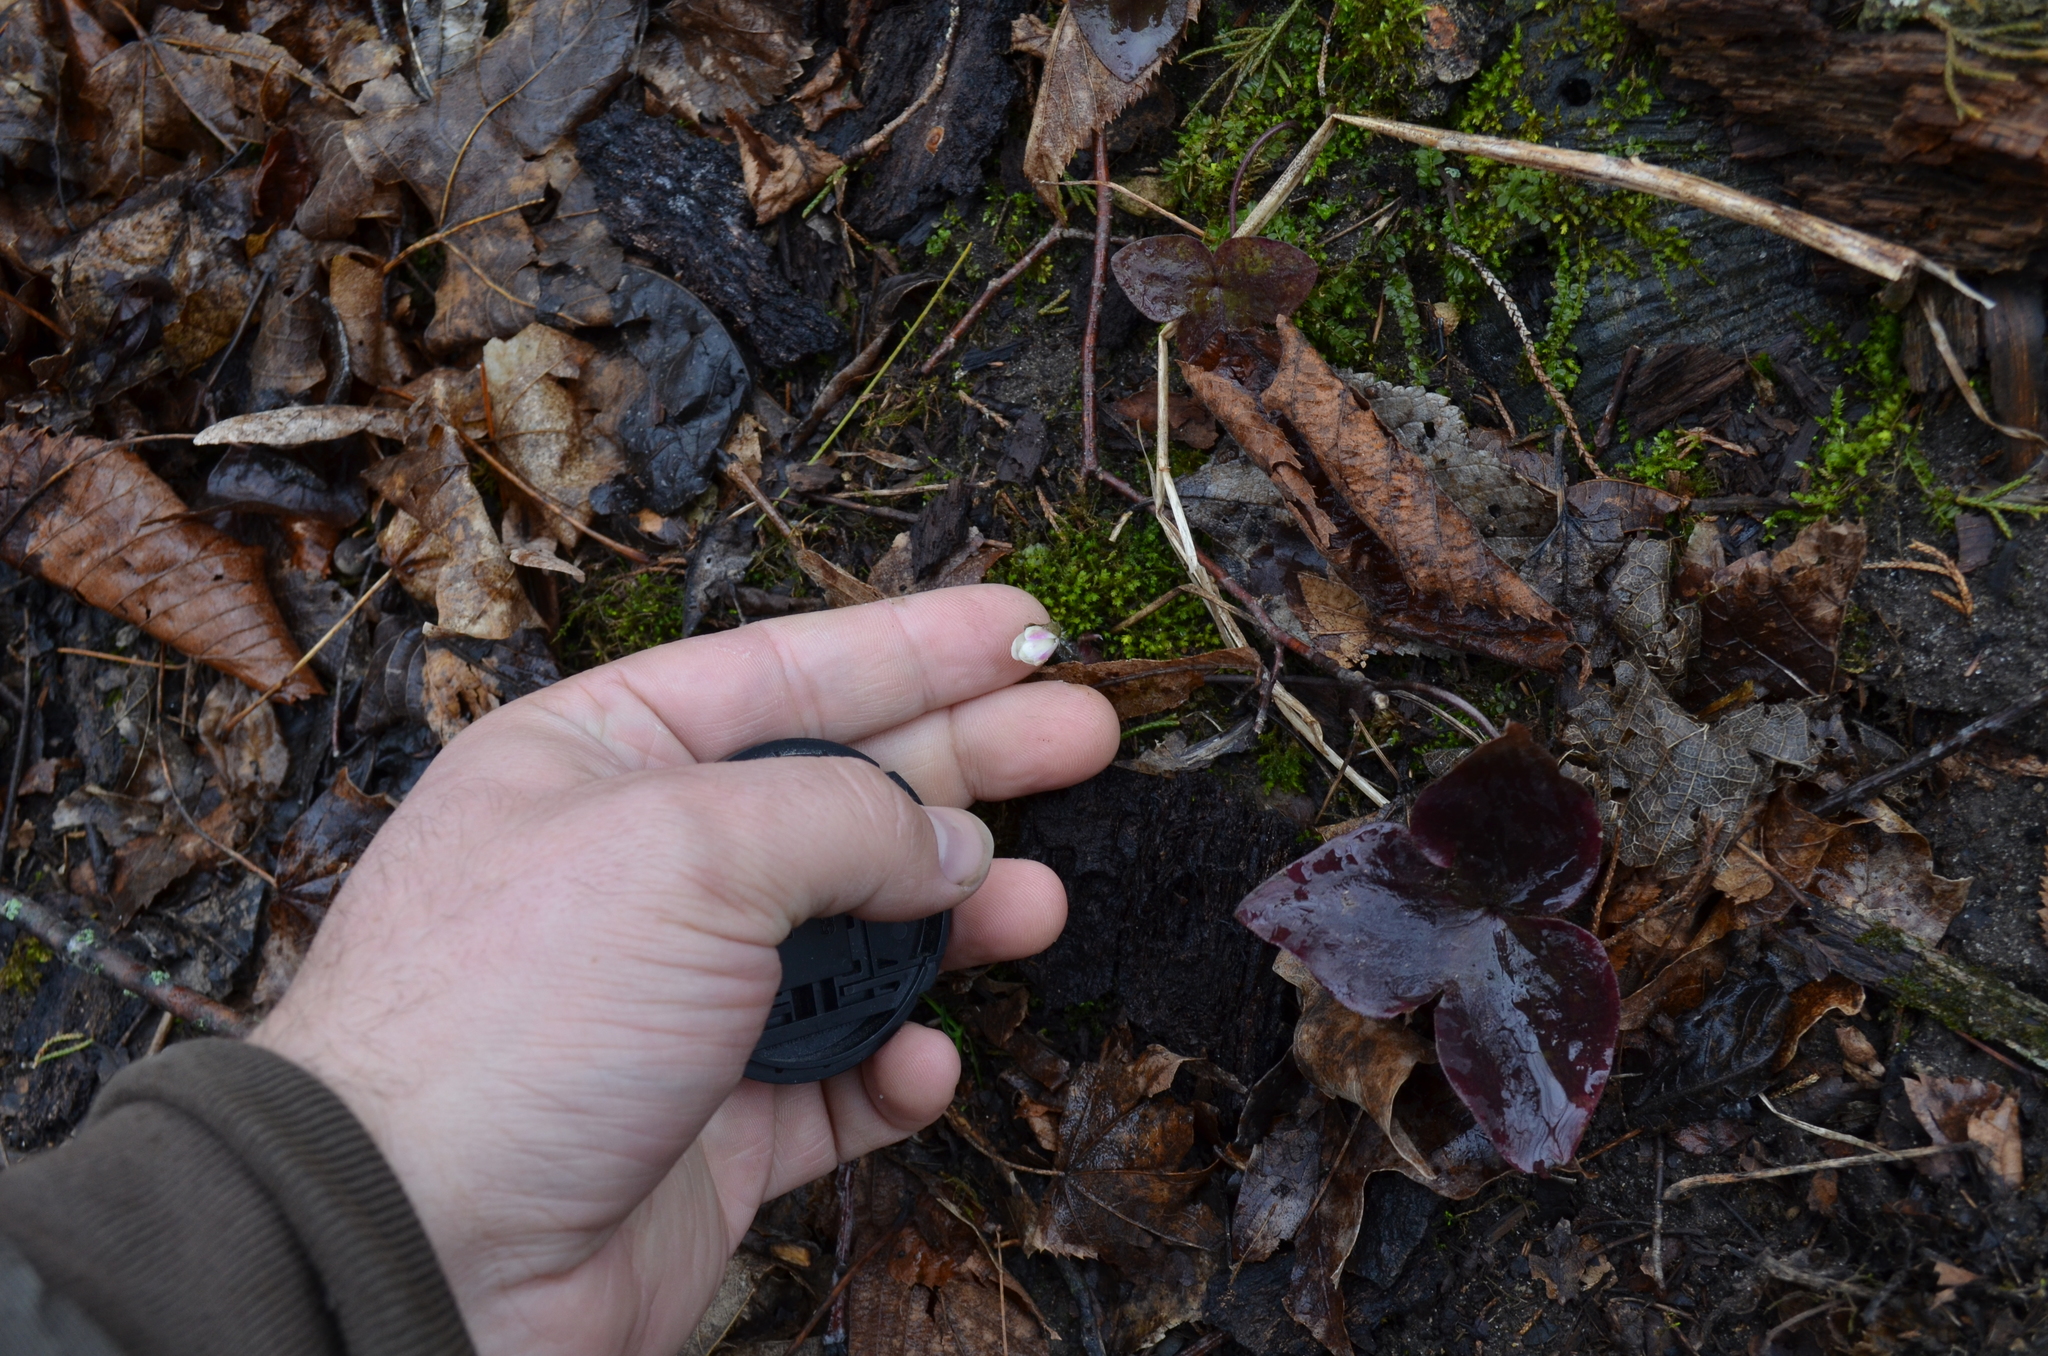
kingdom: Plantae
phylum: Tracheophyta
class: Magnoliopsida
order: Ranunculales
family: Ranunculaceae
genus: Hepatica
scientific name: Hepatica acutiloba
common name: Sharp-lobed hepatica
